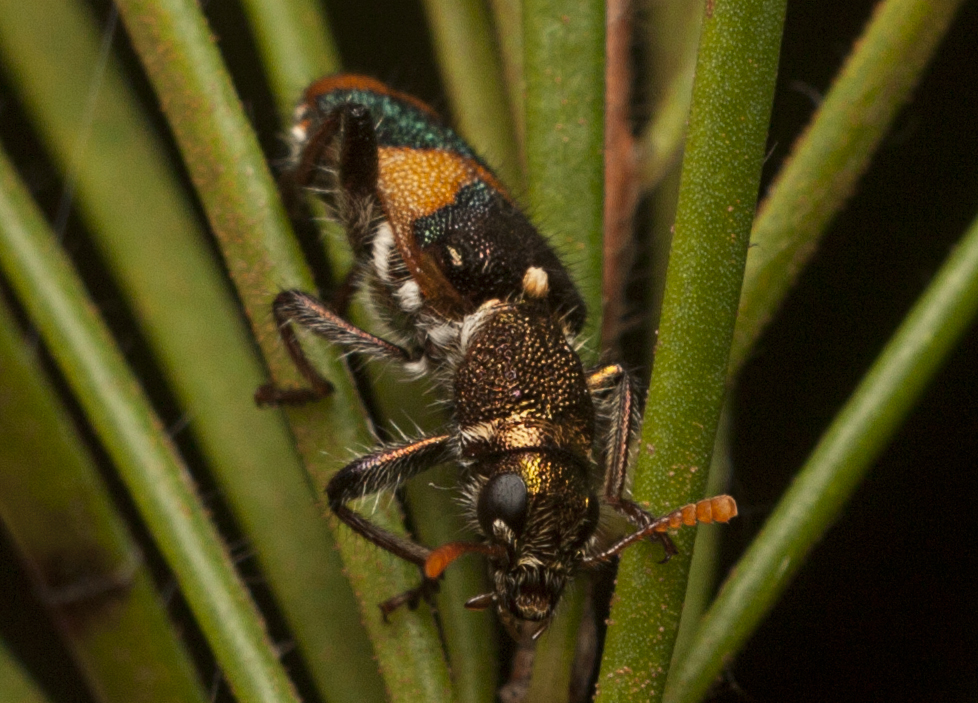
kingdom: Animalia
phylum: Arthropoda
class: Insecta
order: Coleoptera
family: Cleridae
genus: Eleale
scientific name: Eleale
